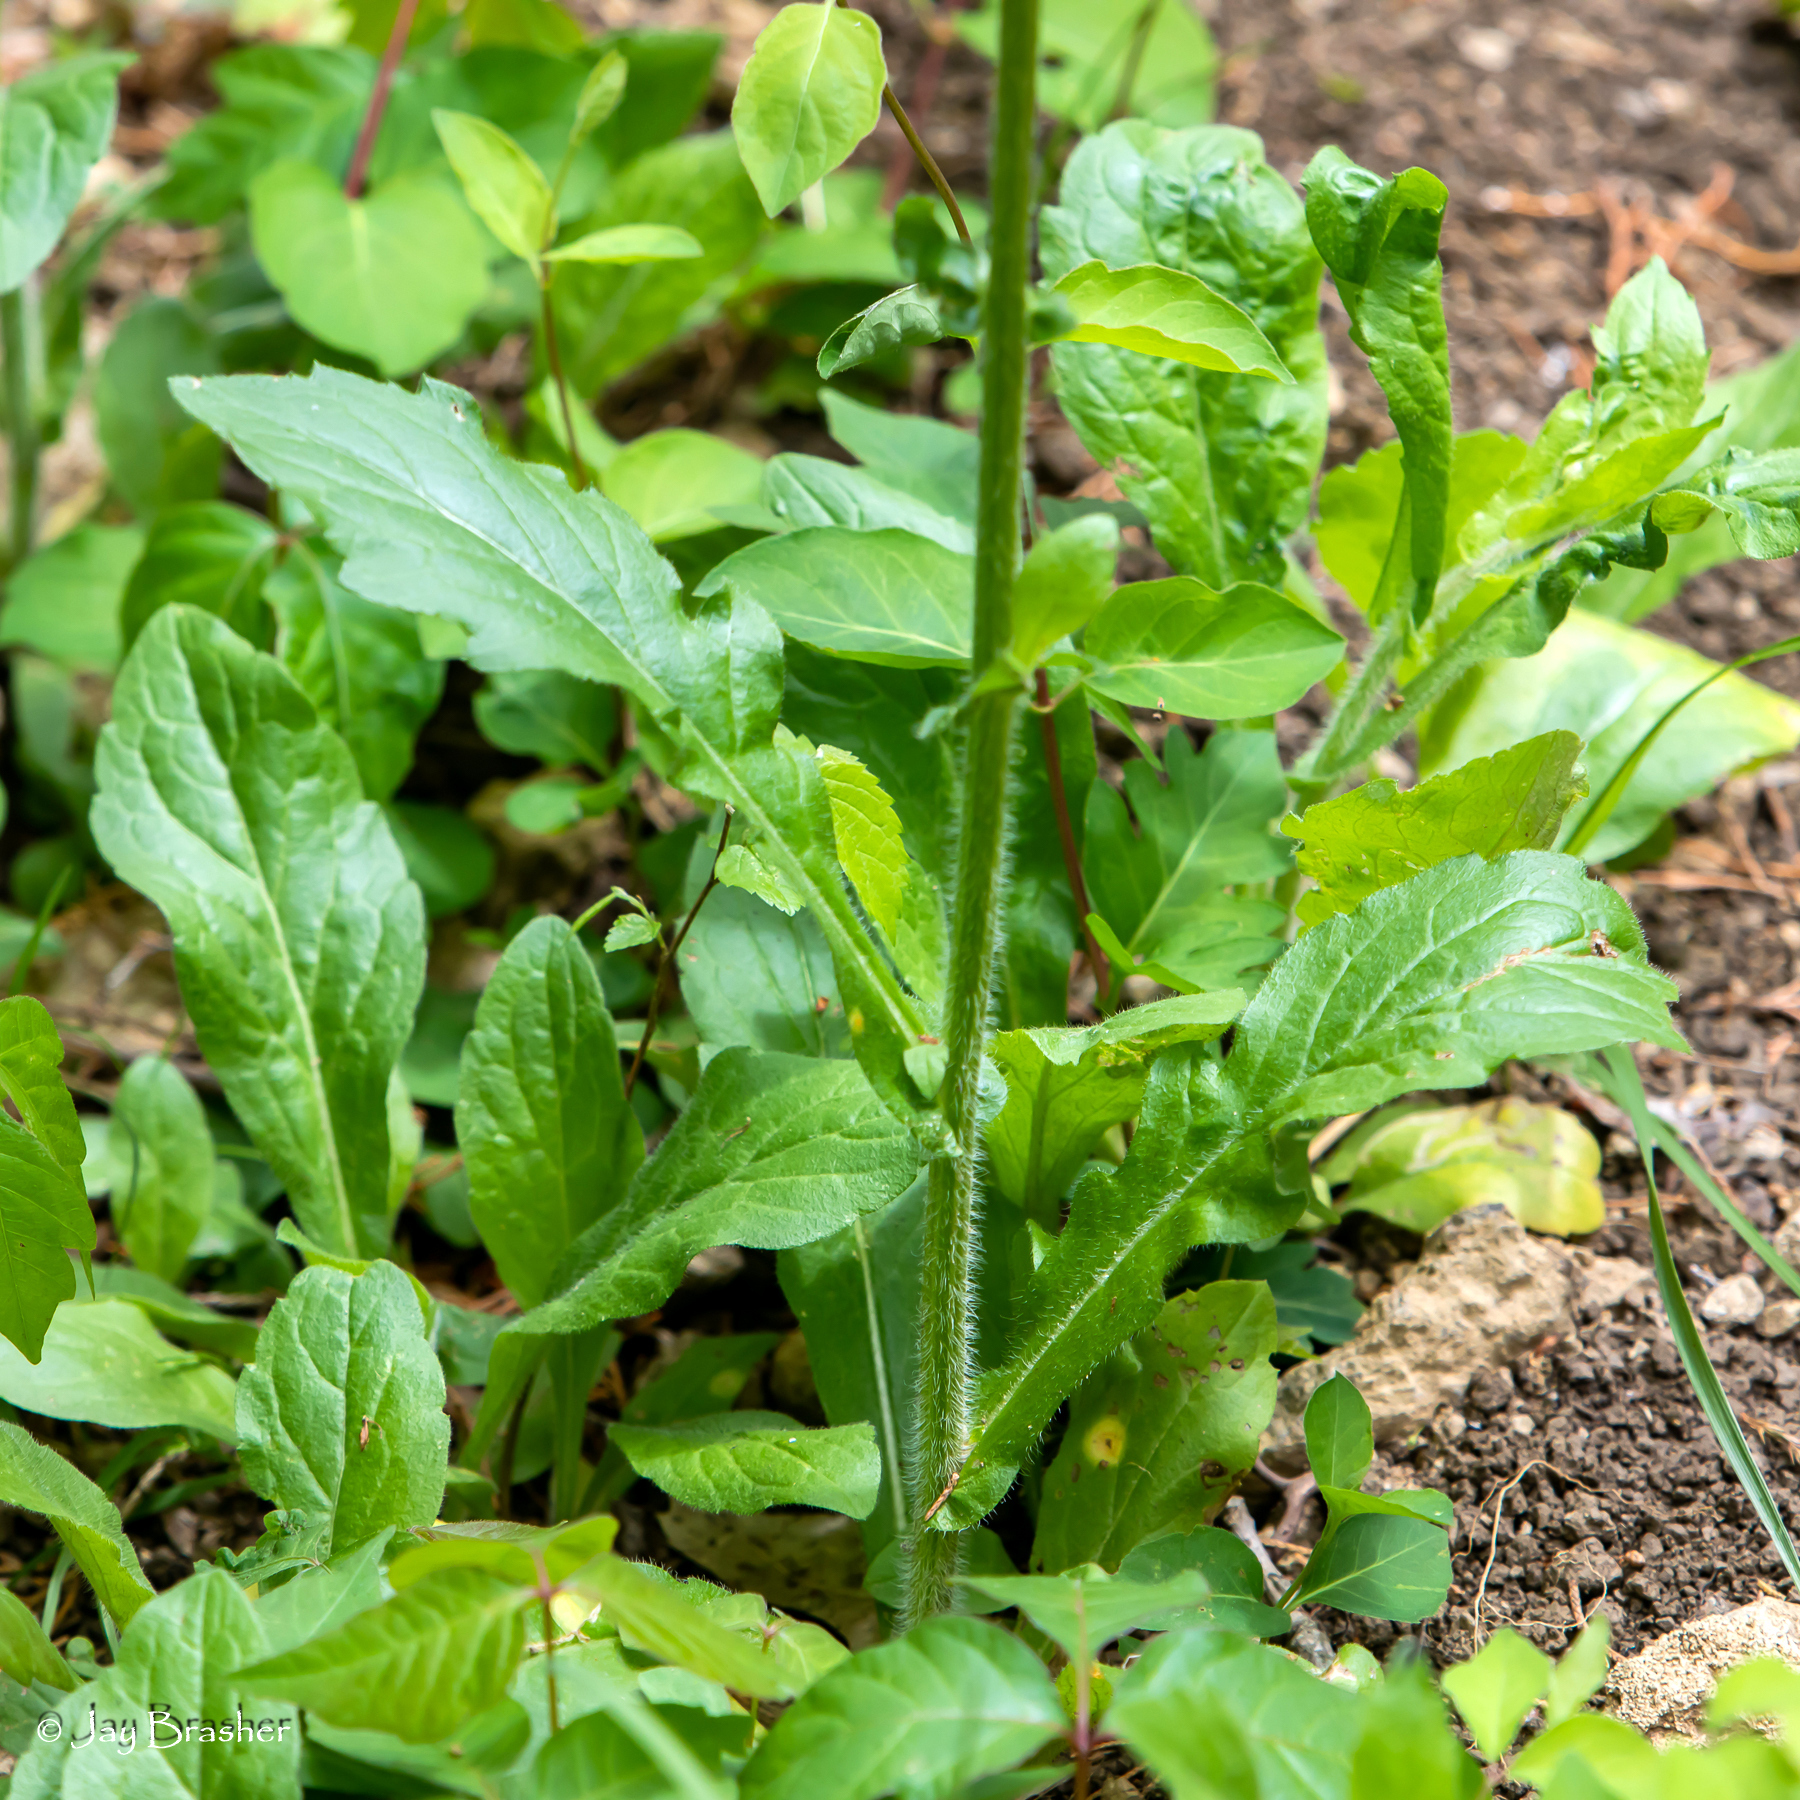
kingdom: Plantae
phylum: Tracheophyta
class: Magnoliopsida
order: Asterales
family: Asteraceae
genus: Erigeron
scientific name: Erigeron philadelphicus
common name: Robin's-plantain
